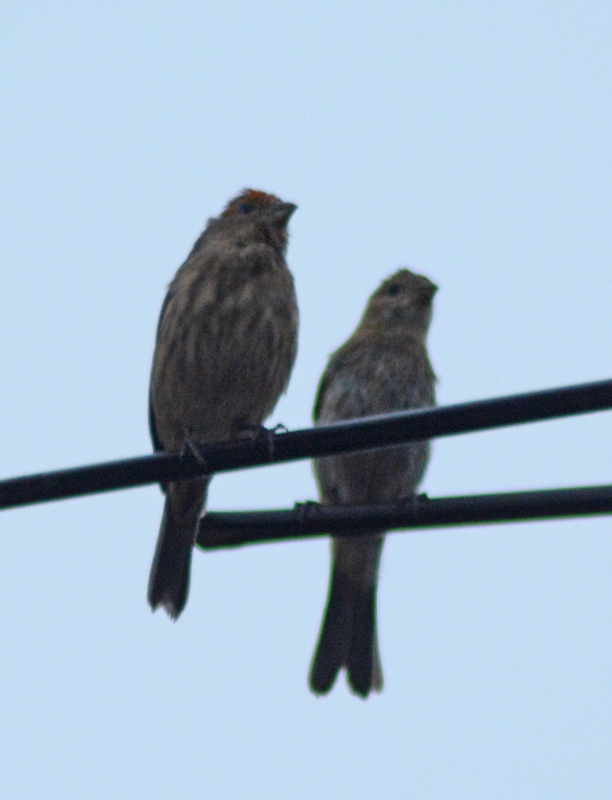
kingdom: Animalia
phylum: Chordata
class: Aves
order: Passeriformes
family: Fringillidae
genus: Haemorhous
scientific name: Haemorhous mexicanus
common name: House finch
